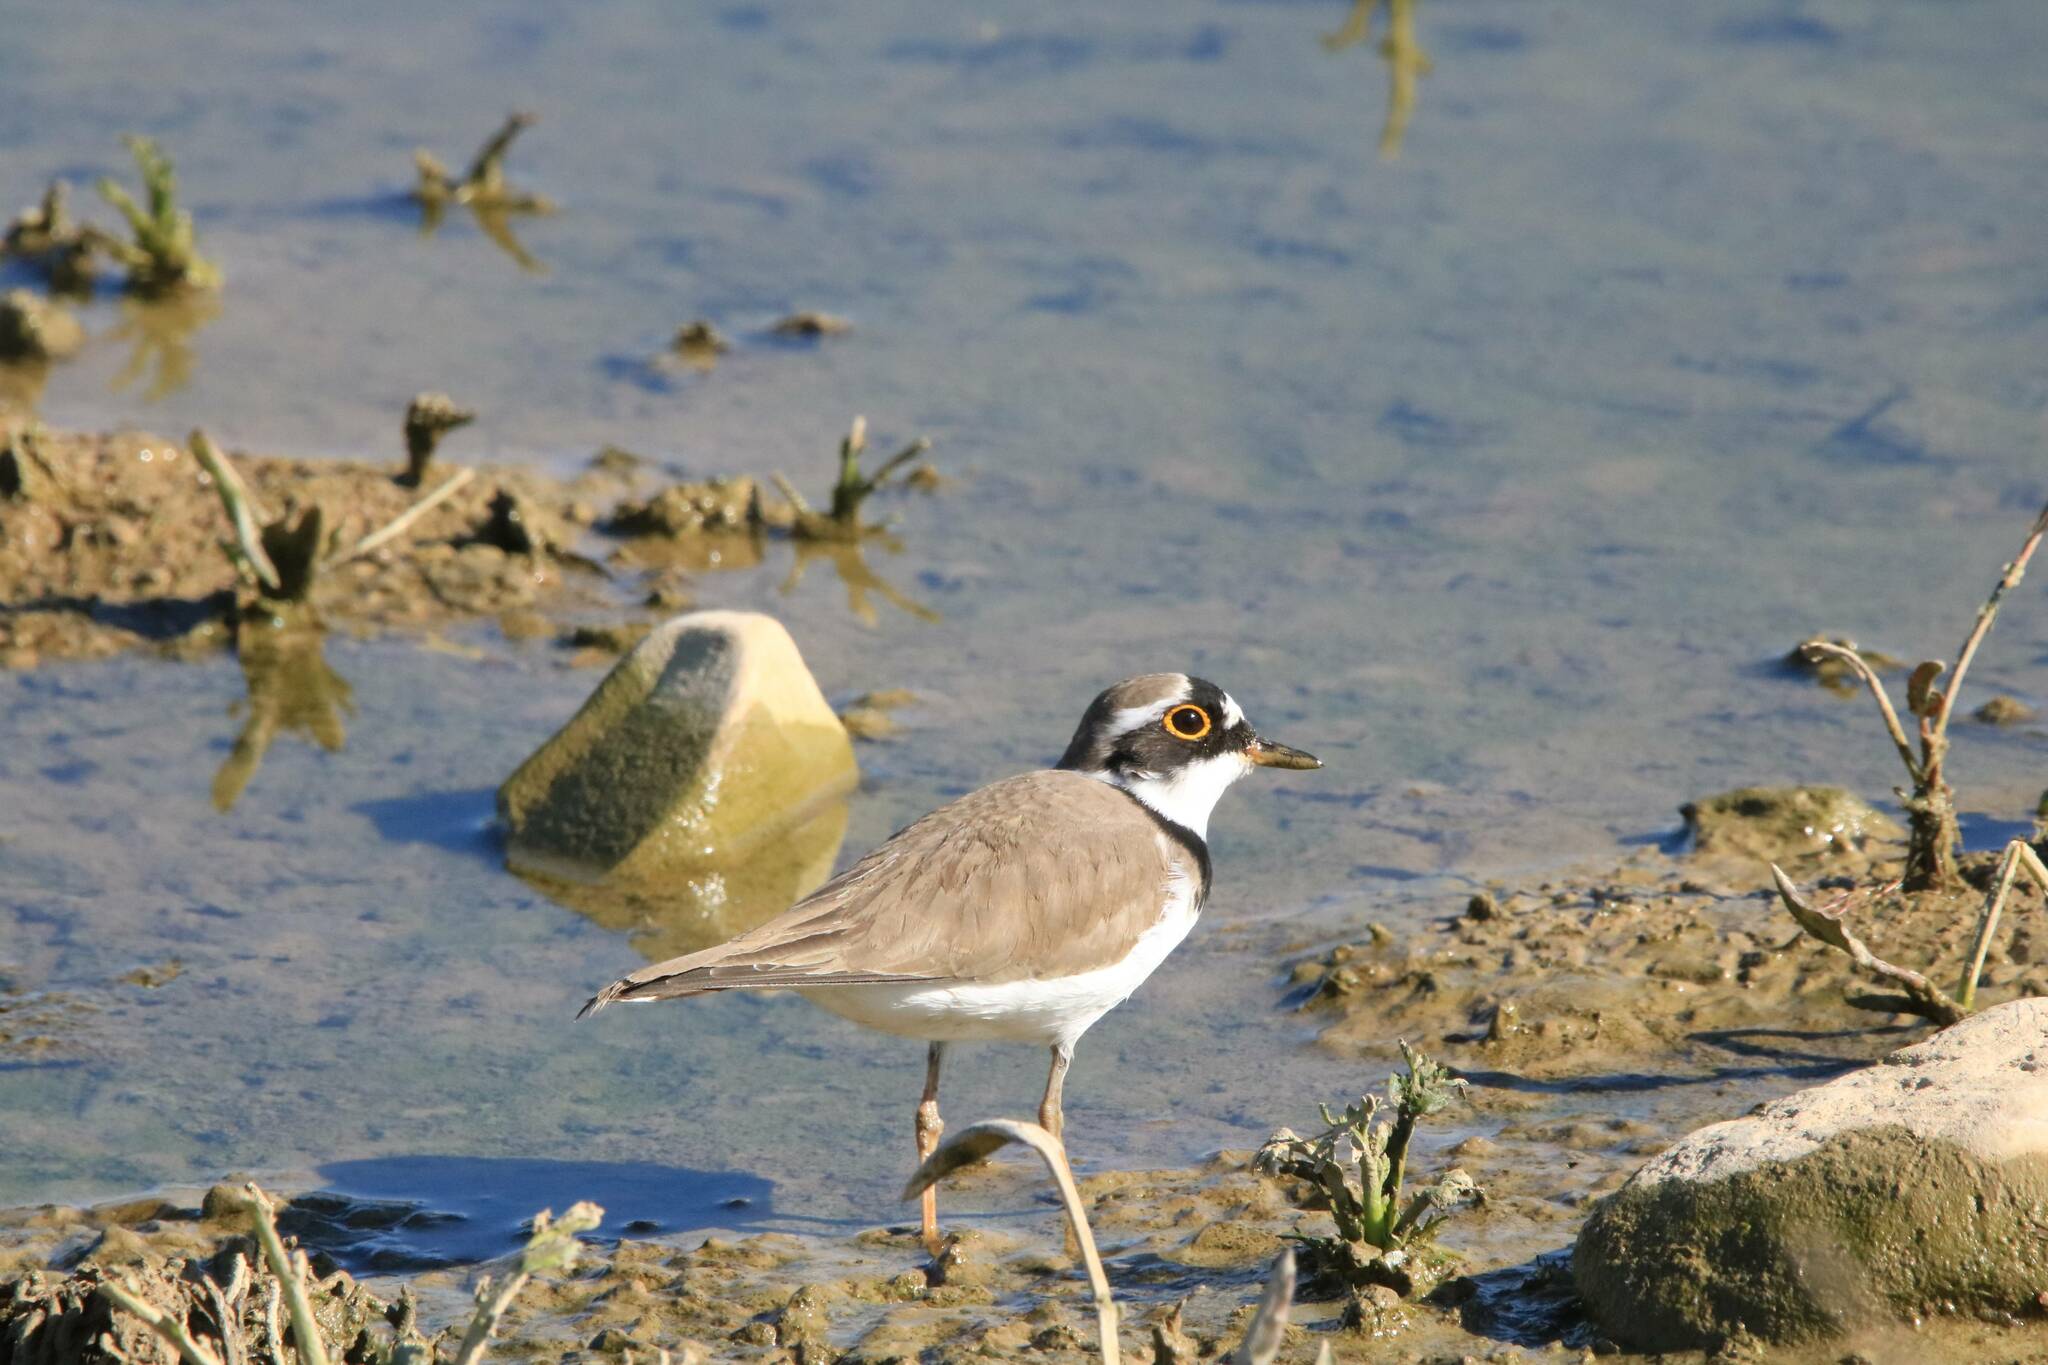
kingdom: Animalia
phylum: Chordata
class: Aves
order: Charadriiformes
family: Charadriidae
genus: Charadrius
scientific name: Charadrius dubius
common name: Little ringed plover
